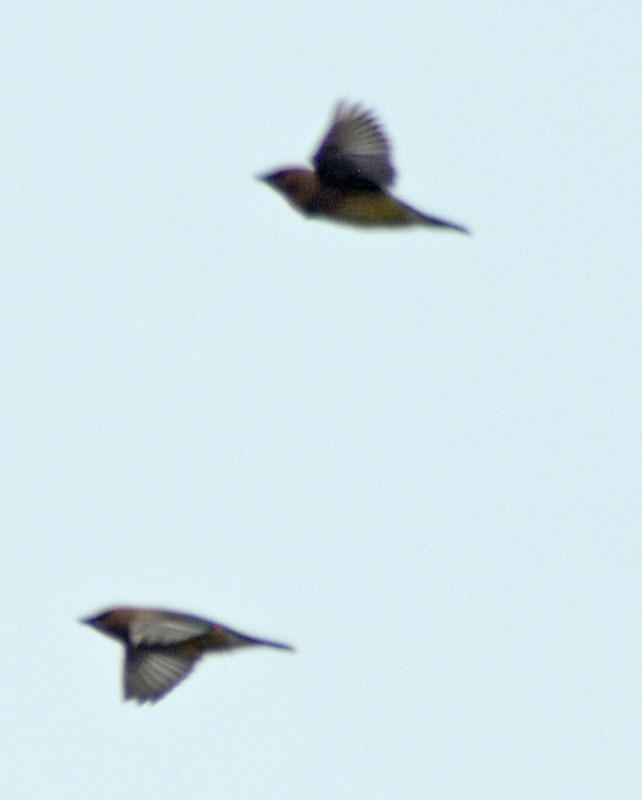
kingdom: Animalia
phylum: Chordata
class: Aves
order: Passeriformes
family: Bombycillidae
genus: Bombycilla
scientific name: Bombycilla cedrorum
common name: Cedar waxwing
